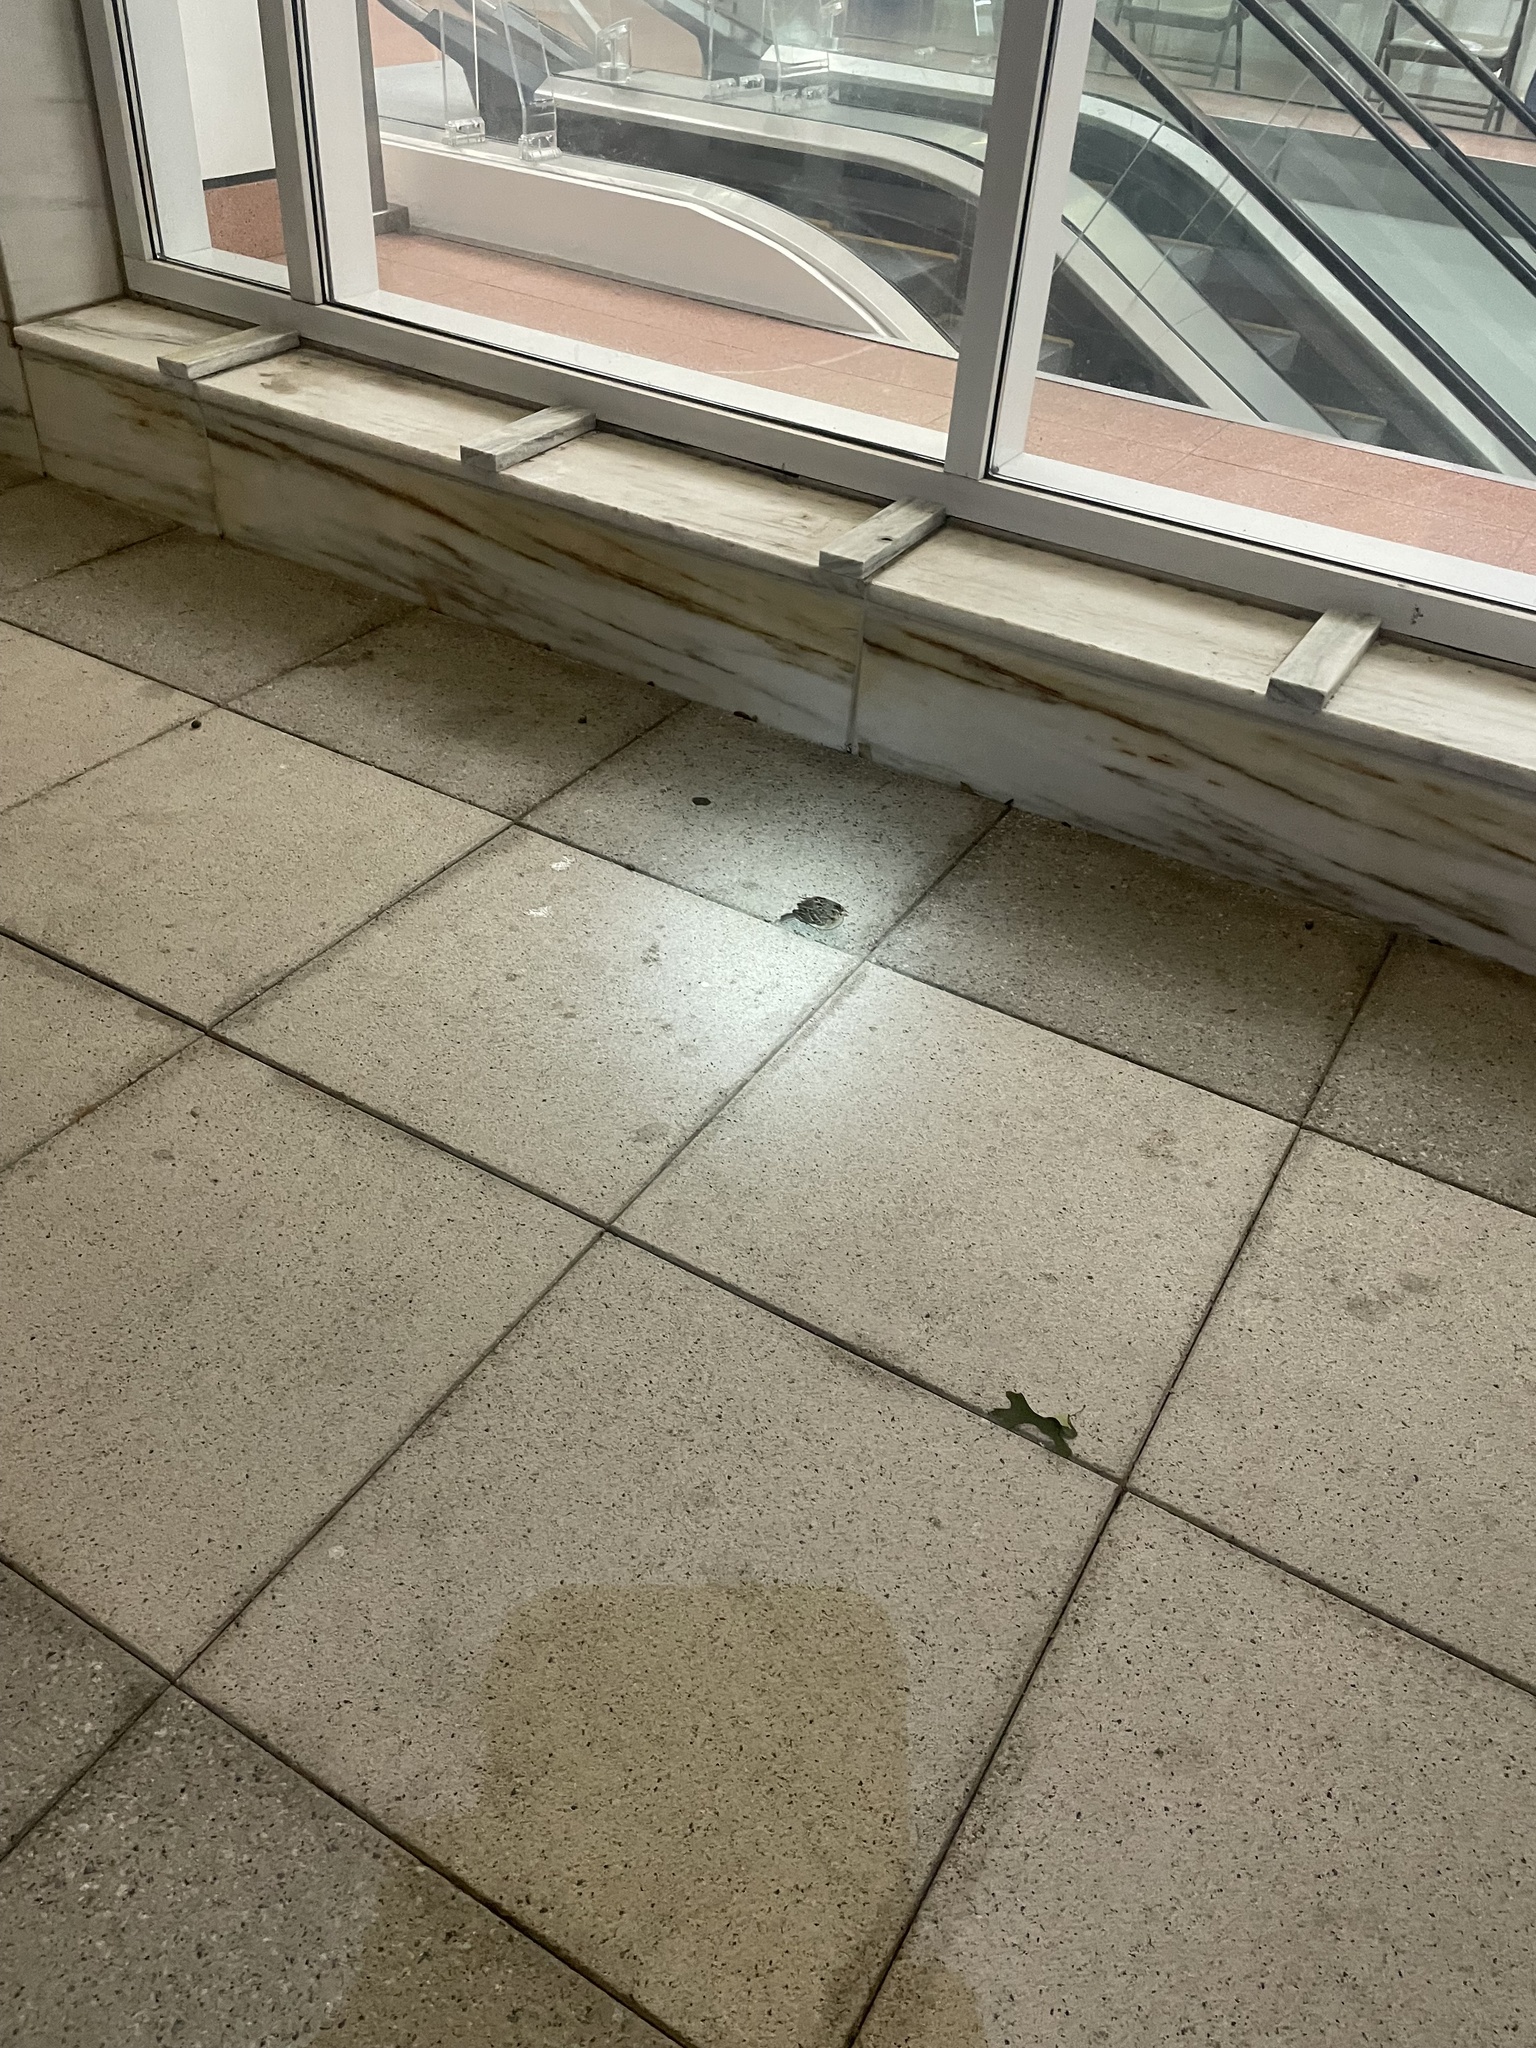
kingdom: Animalia
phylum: Chordata
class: Aves
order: Passeriformes
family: Passerellidae
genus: Ammodramus
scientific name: Ammodramus savannarum
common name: Grasshopper sparrow
